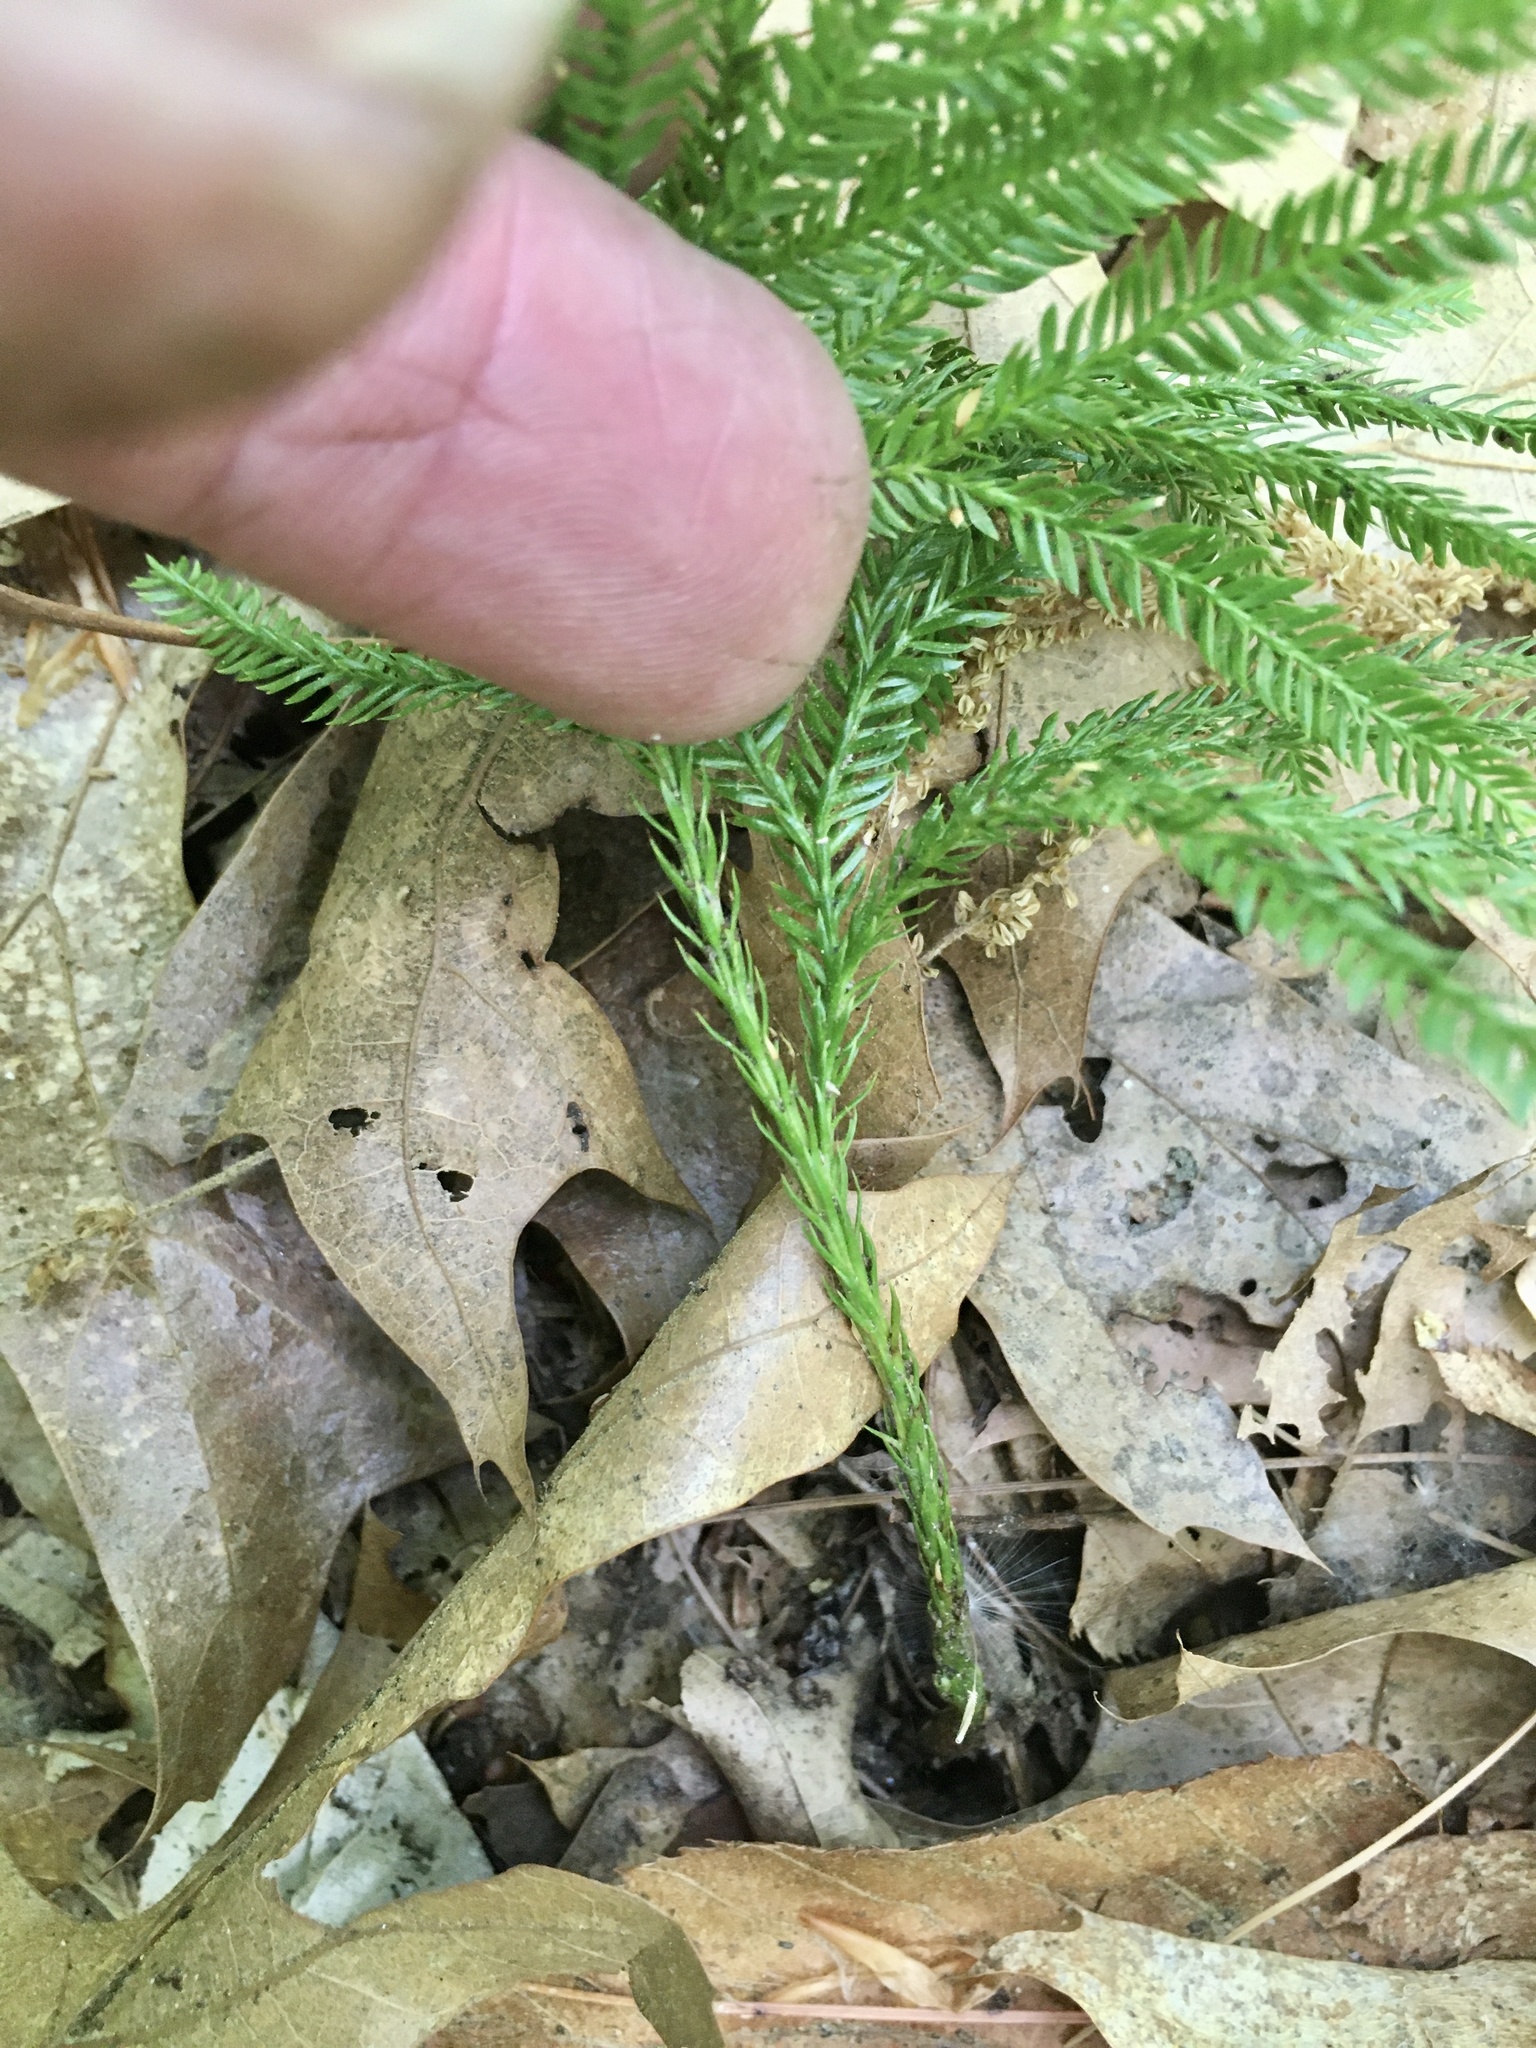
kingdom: Plantae
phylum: Tracheophyta
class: Lycopodiopsida
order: Lycopodiales
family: Lycopodiaceae
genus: Dendrolycopodium
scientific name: Dendrolycopodium obscurum
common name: Common ground-pine
